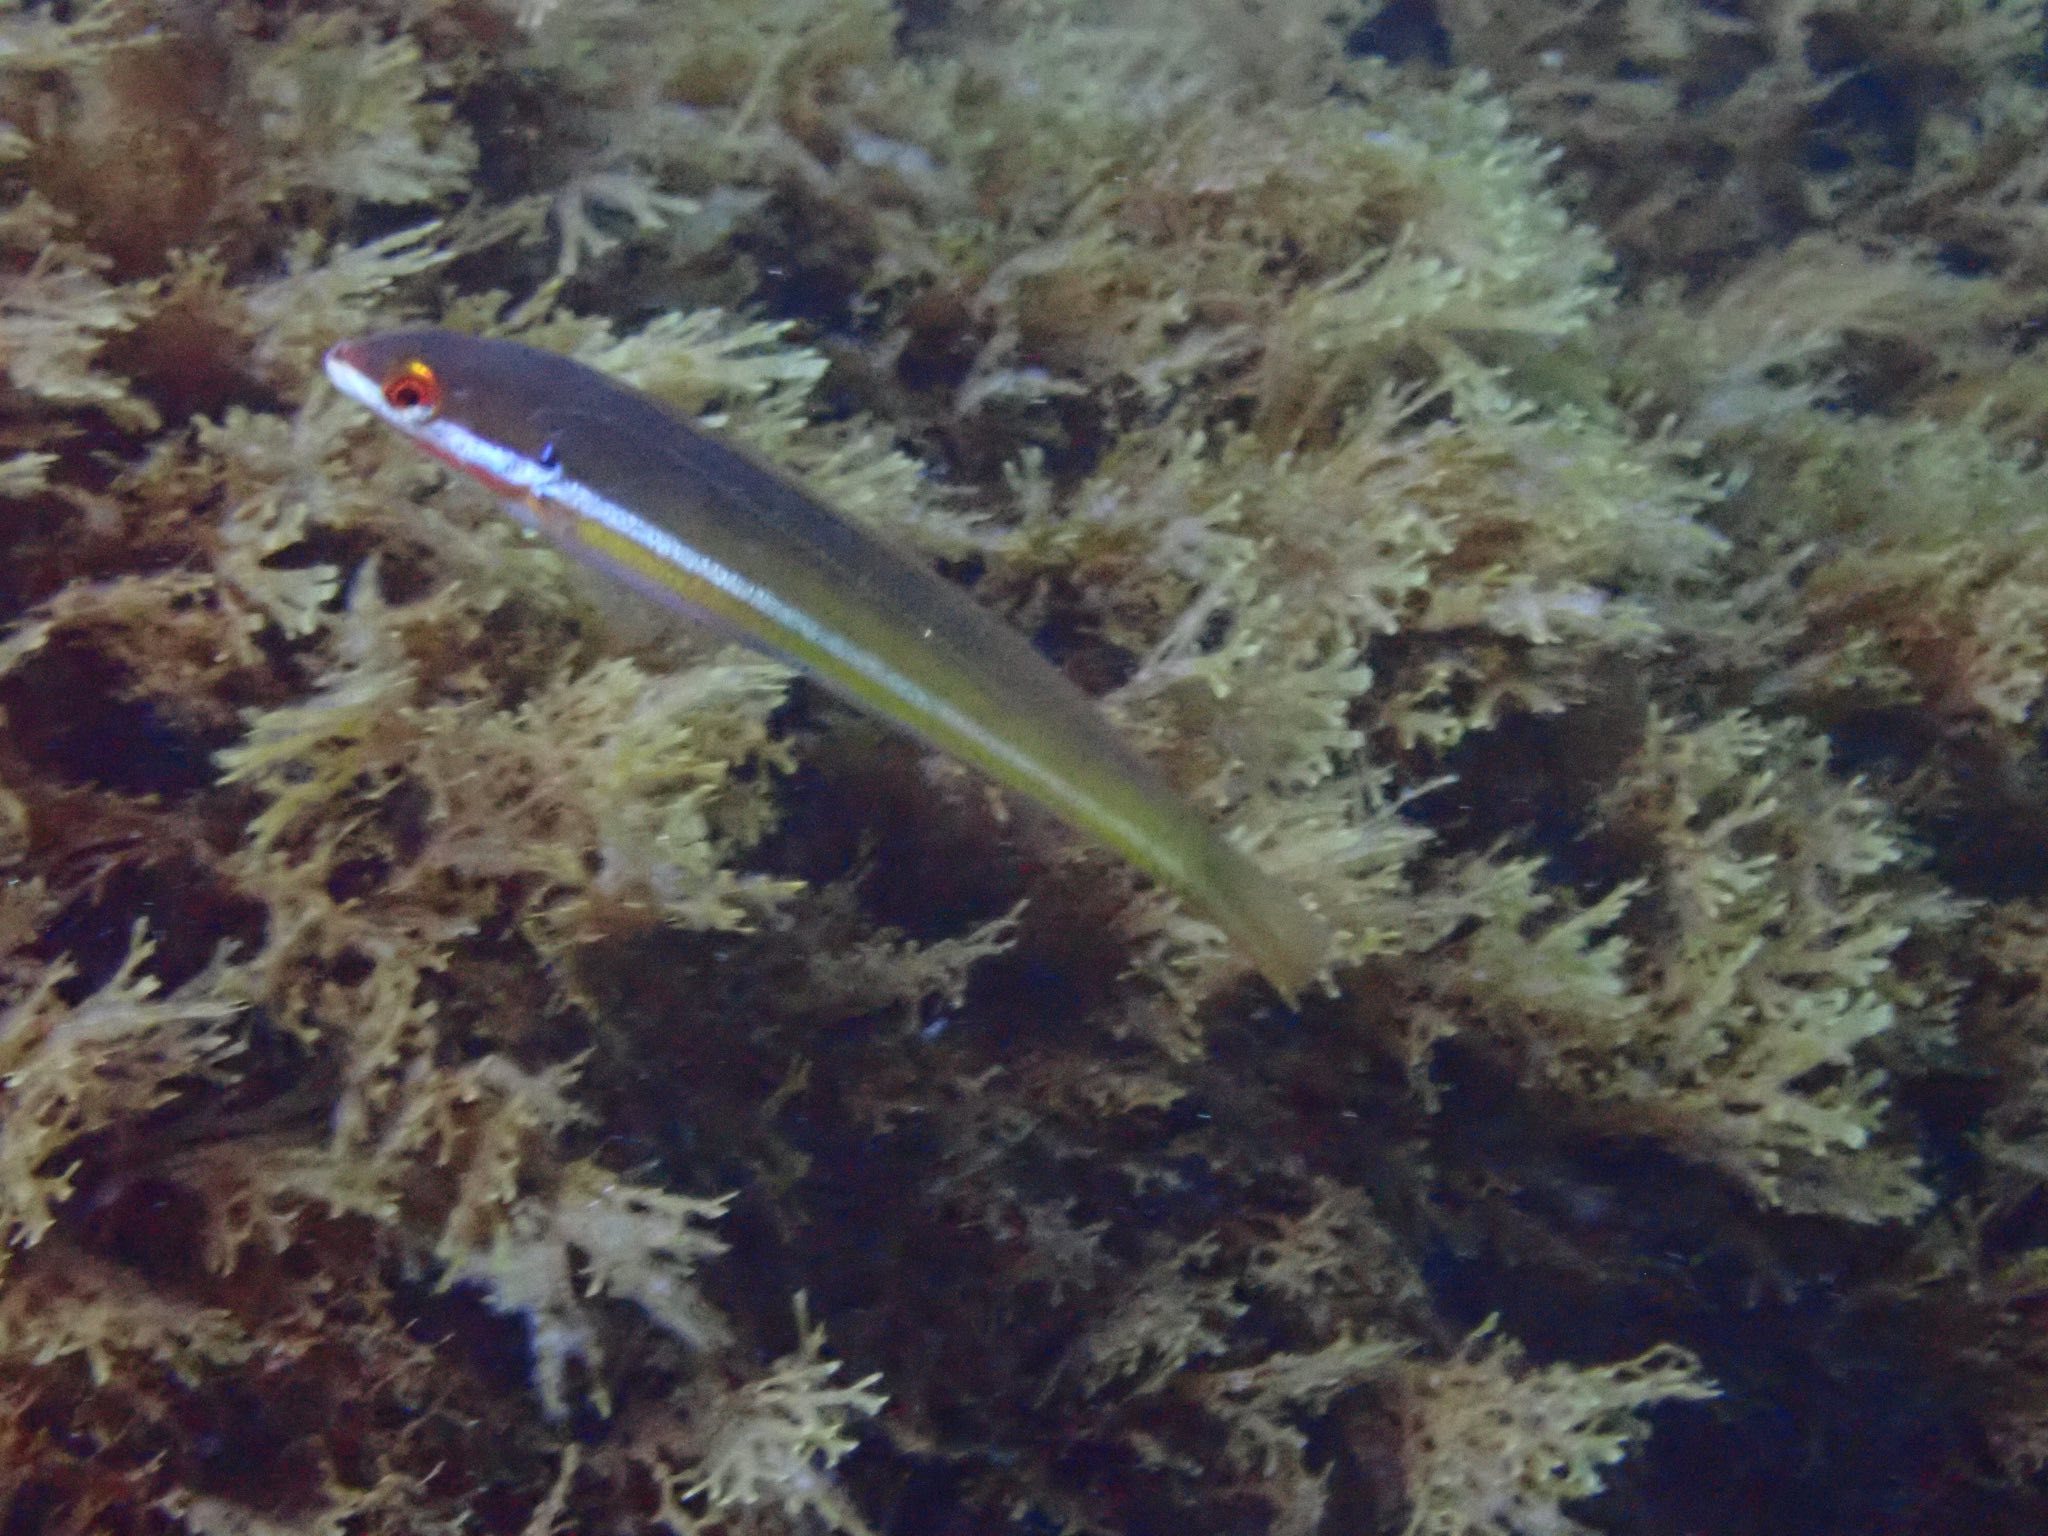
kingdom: Animalia
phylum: Chordata
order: Perciformes
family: Labridae
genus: Coris
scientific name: Coris
